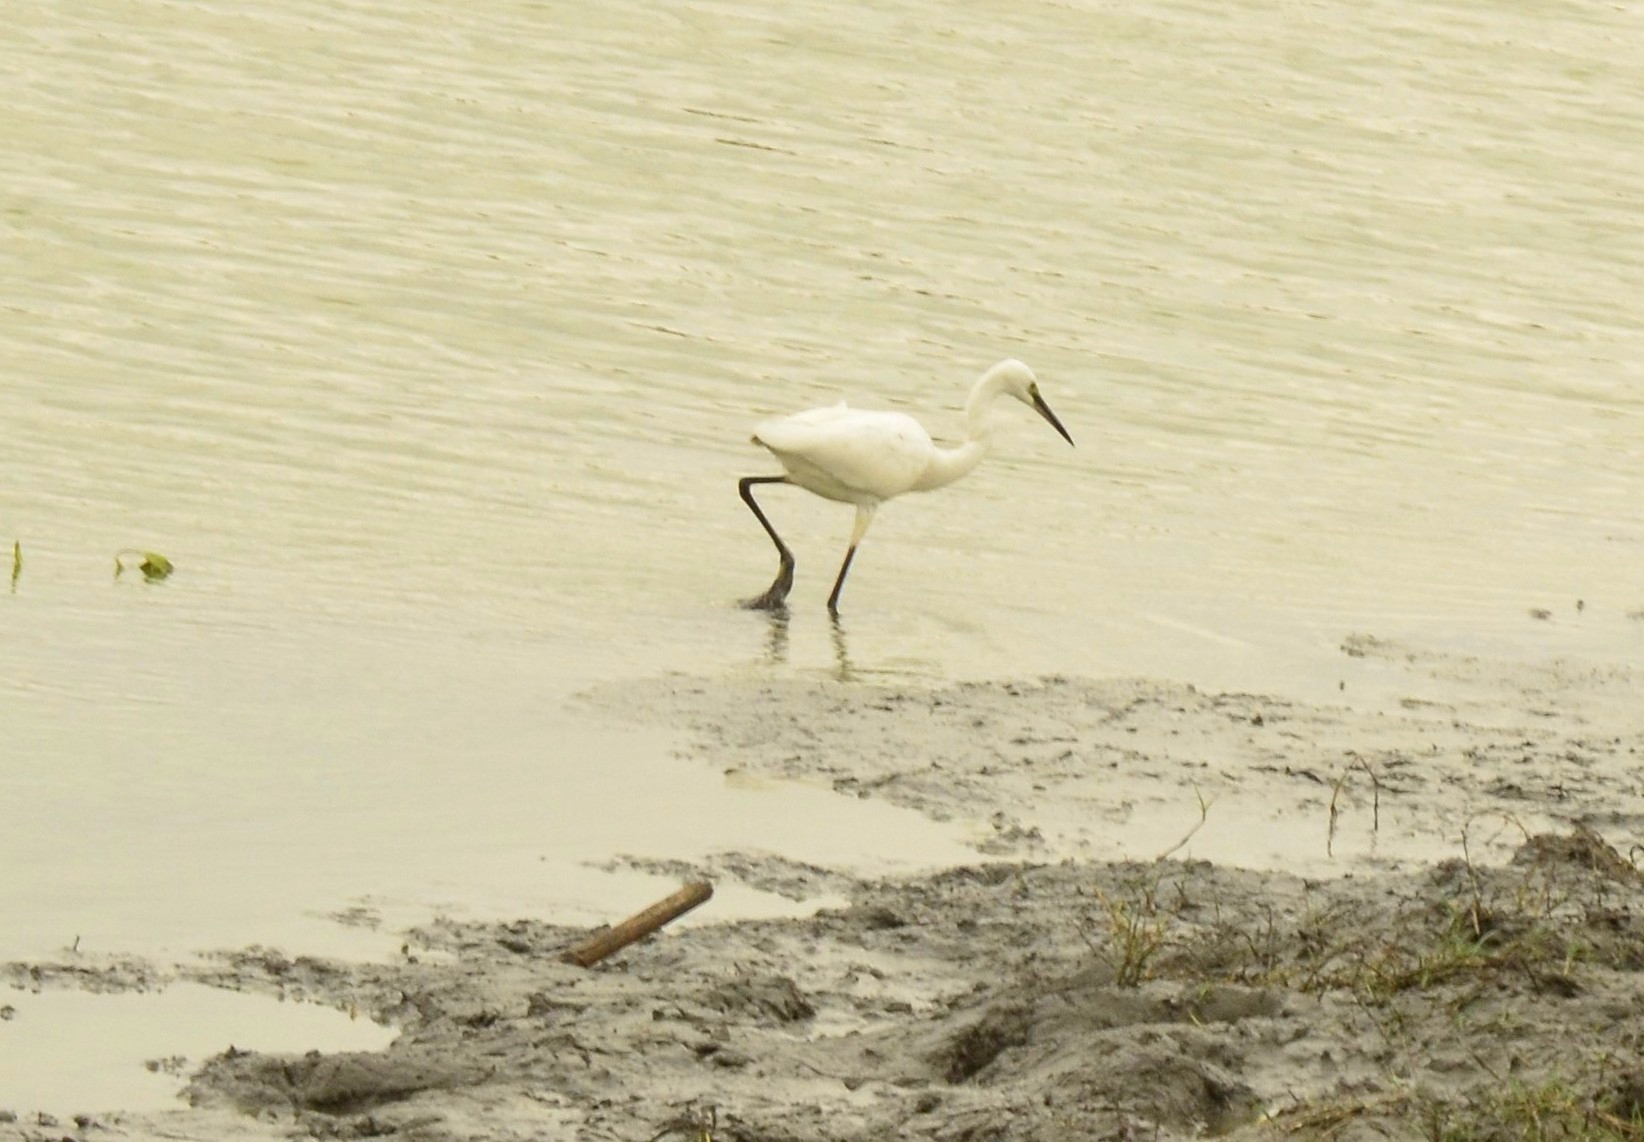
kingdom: Animalia
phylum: Chordata
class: Aves
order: Pelecaniformes
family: Ardeidae
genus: Egretta
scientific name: Egretta garzetta
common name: Little egret
